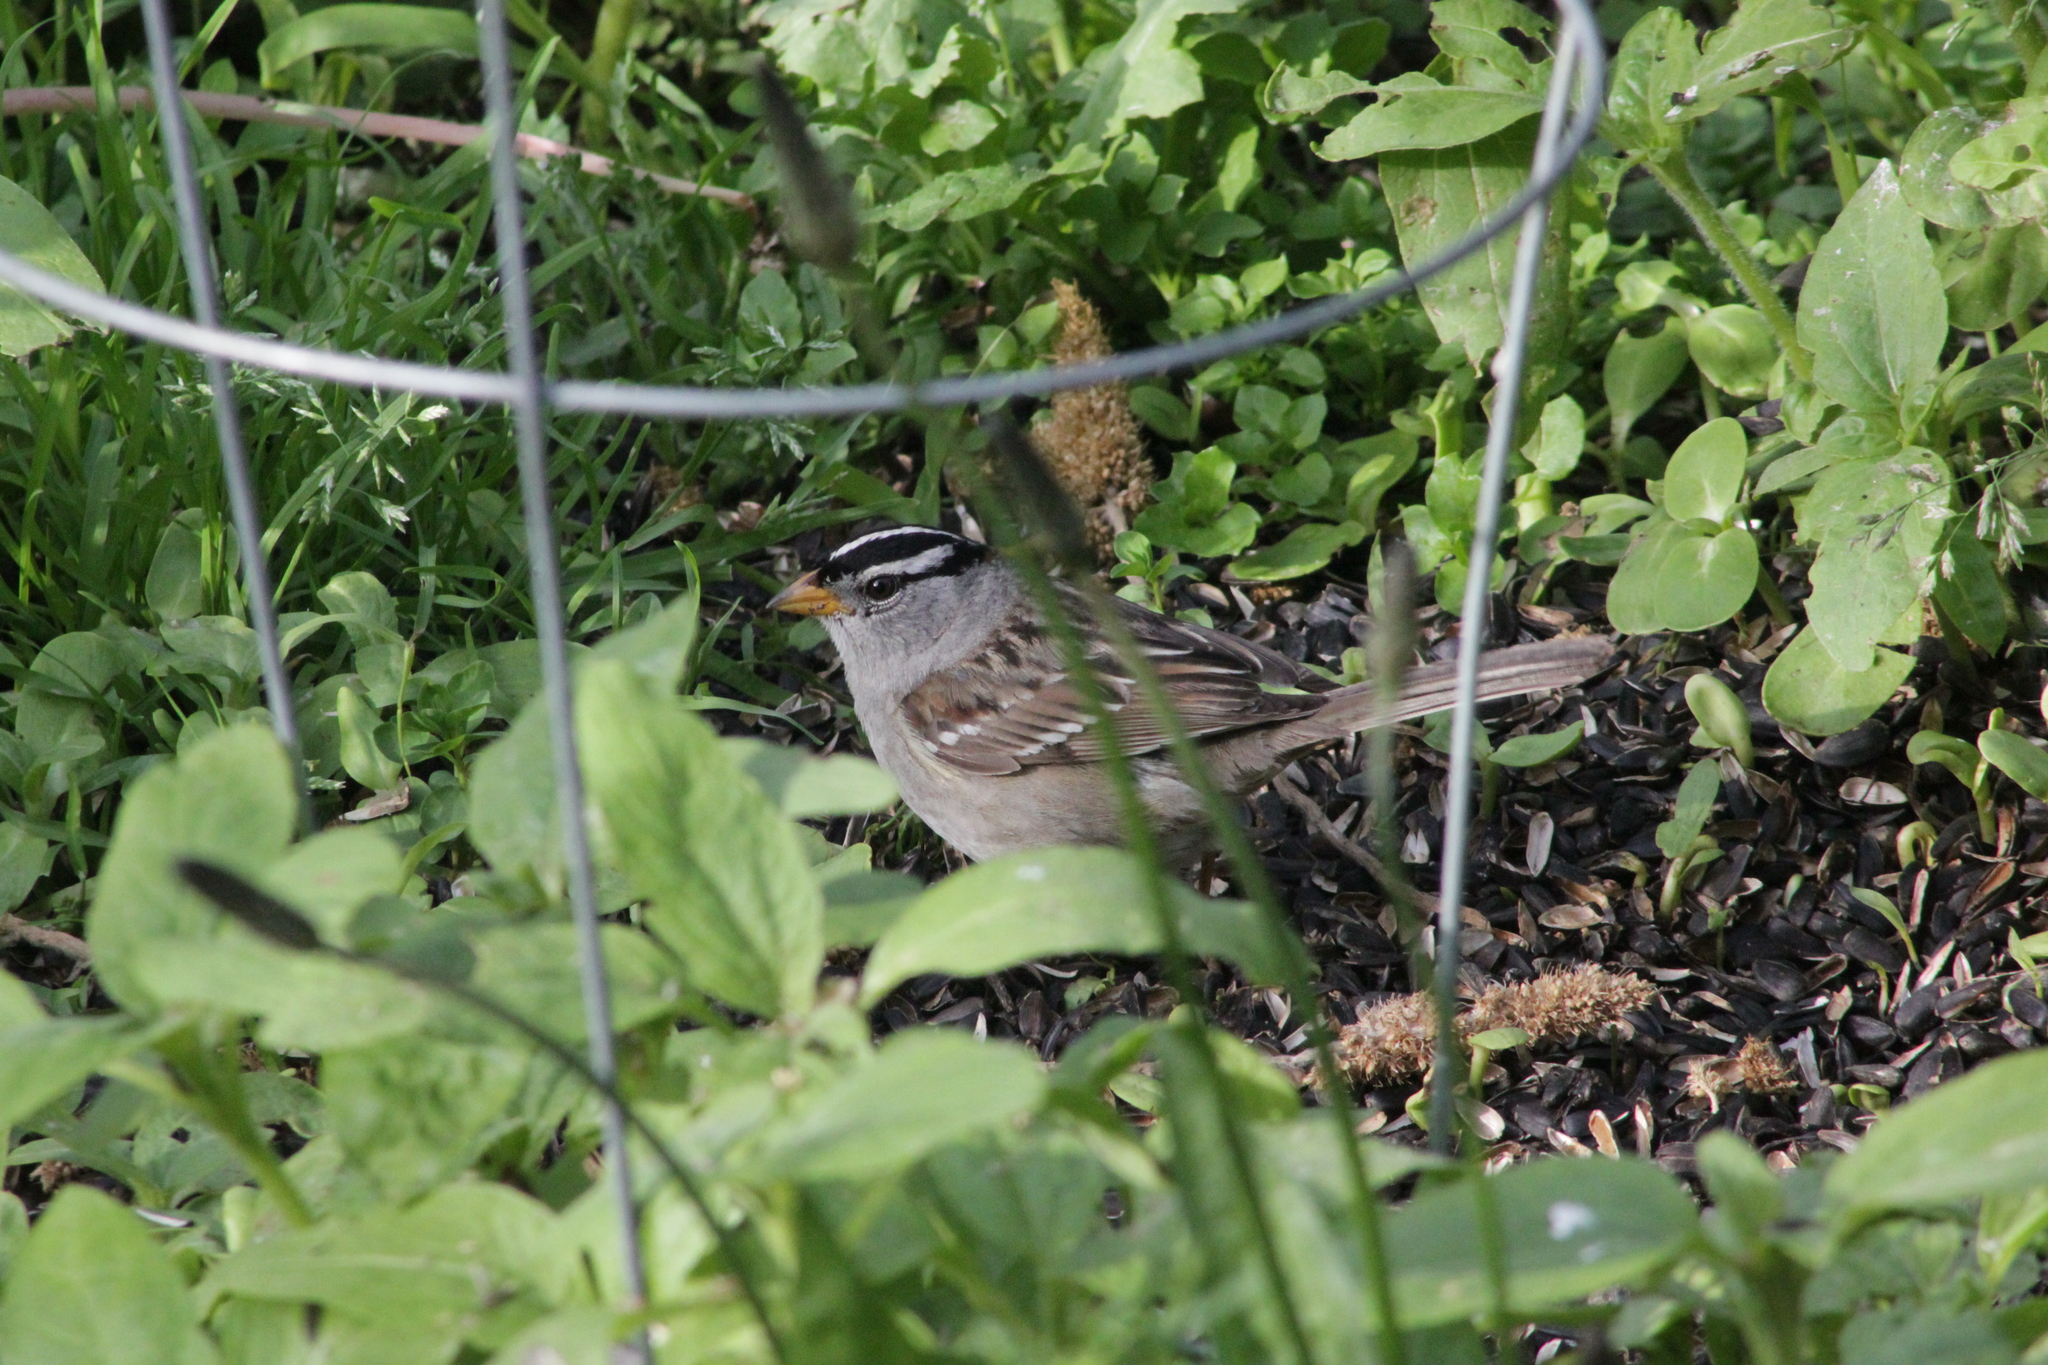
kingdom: Animalia
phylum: Chordata
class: Aves
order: Passeriformes
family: Passerellidae
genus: Zonotrichia
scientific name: Zonotrichia leucophrys
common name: White-crowned sparrow
